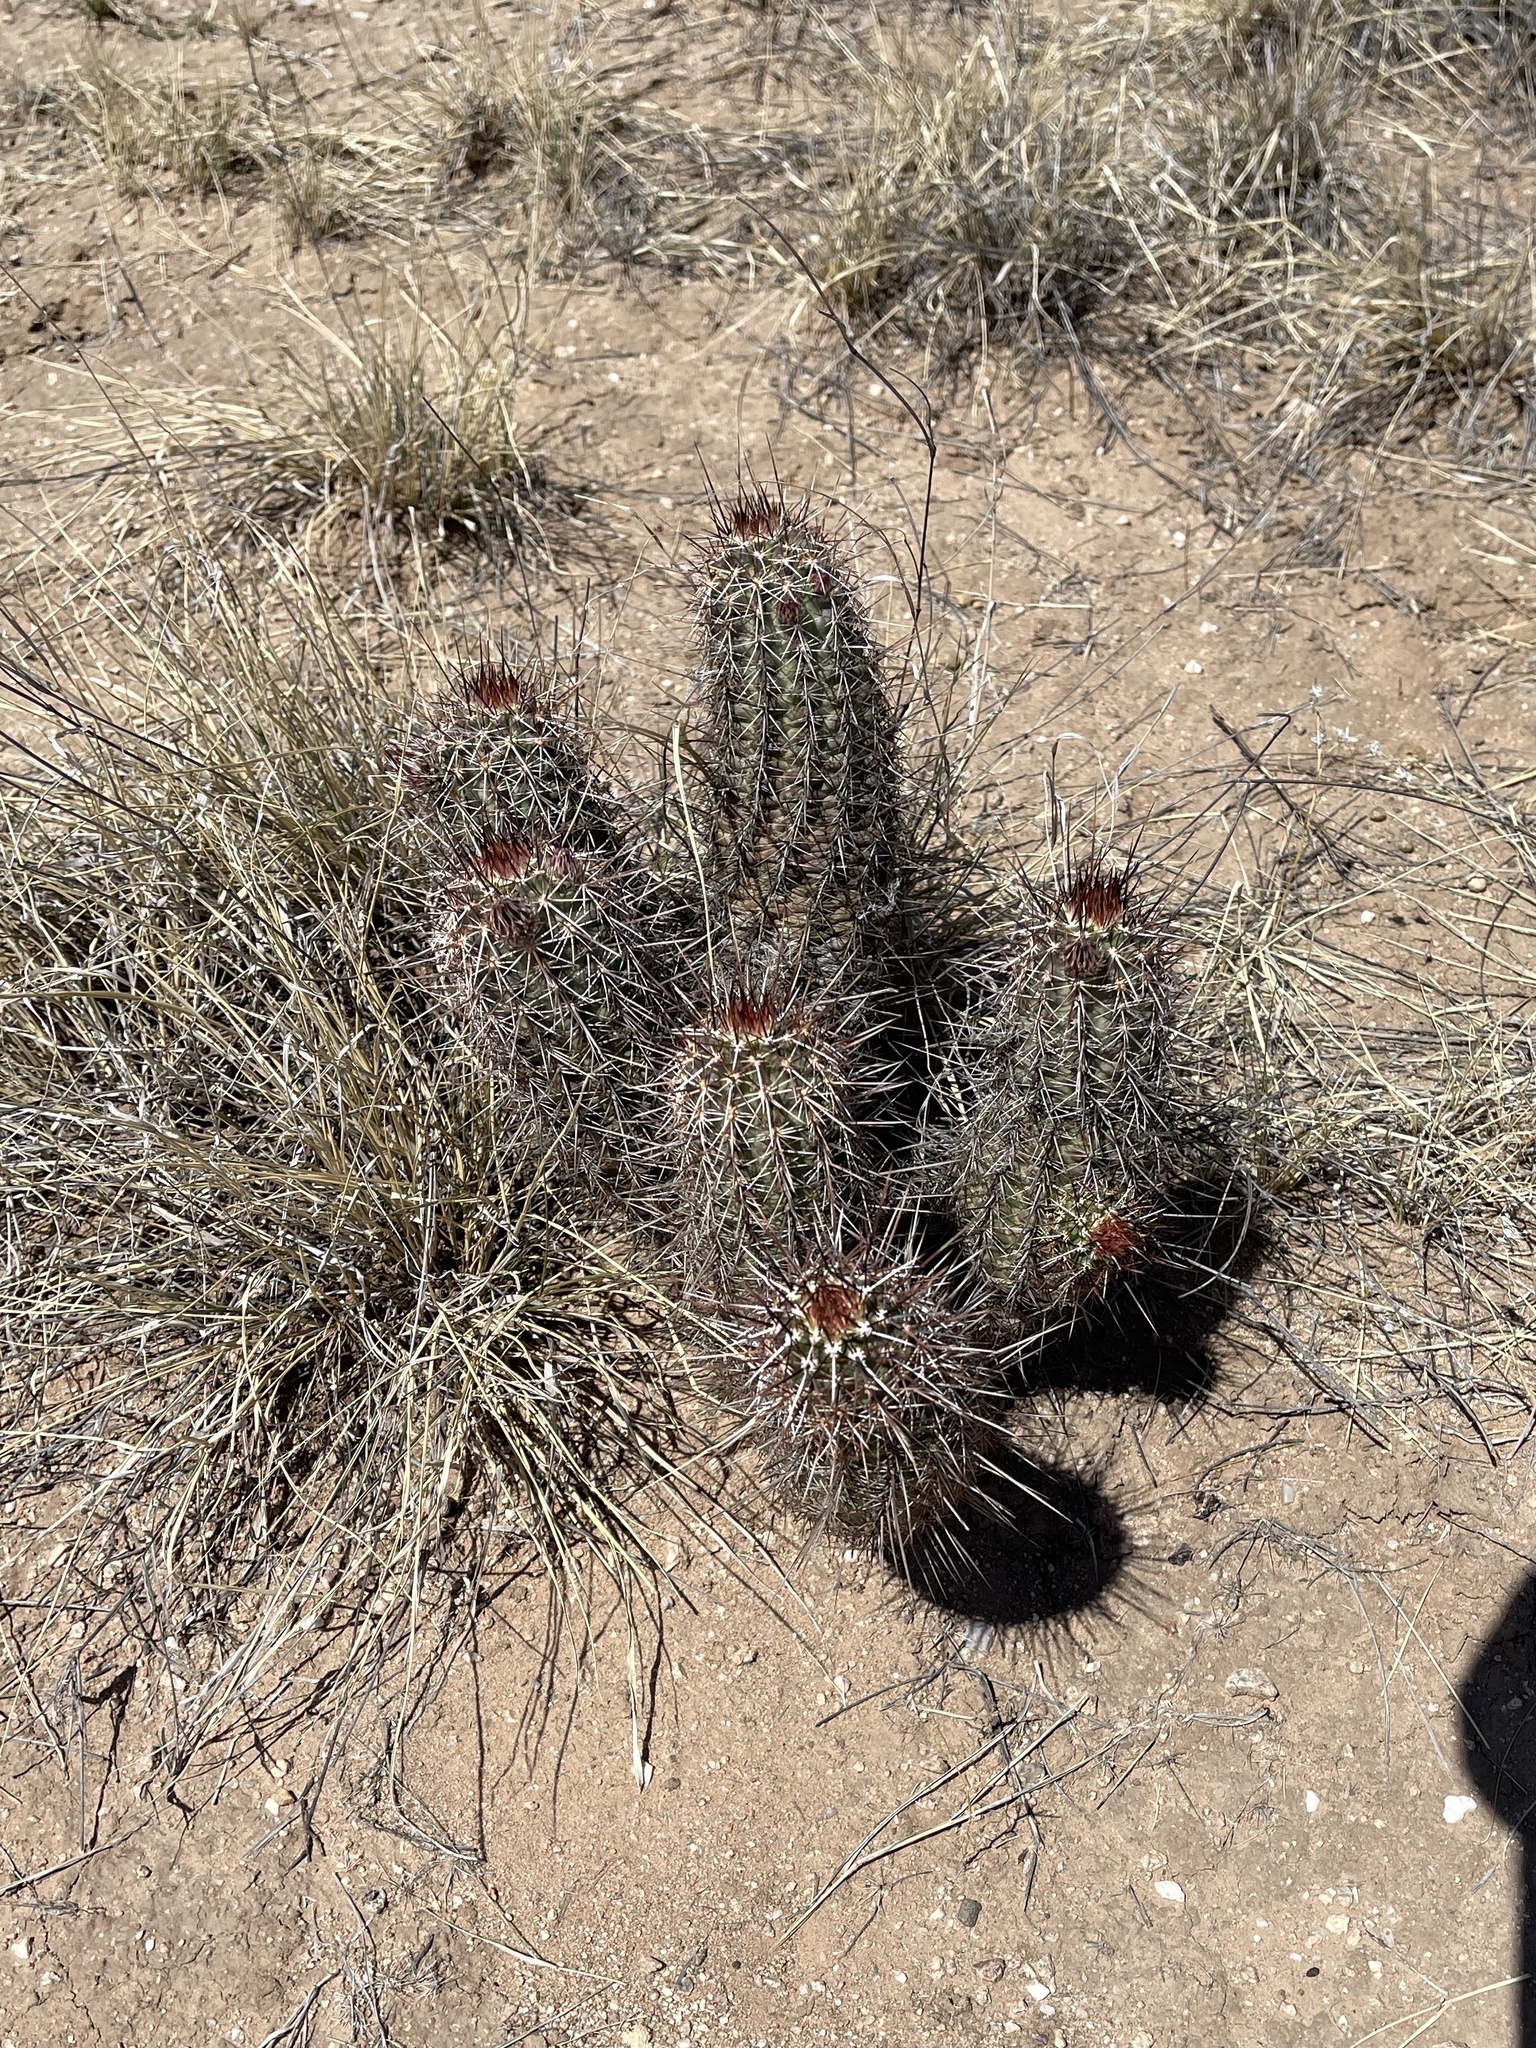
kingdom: Plantae
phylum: Tracheophyta
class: Magnoliopsida
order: Caryophyllales
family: Cactaceae
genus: Echinocereus
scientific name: Echinocereus fasciculatus
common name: Bundle hedgehog
